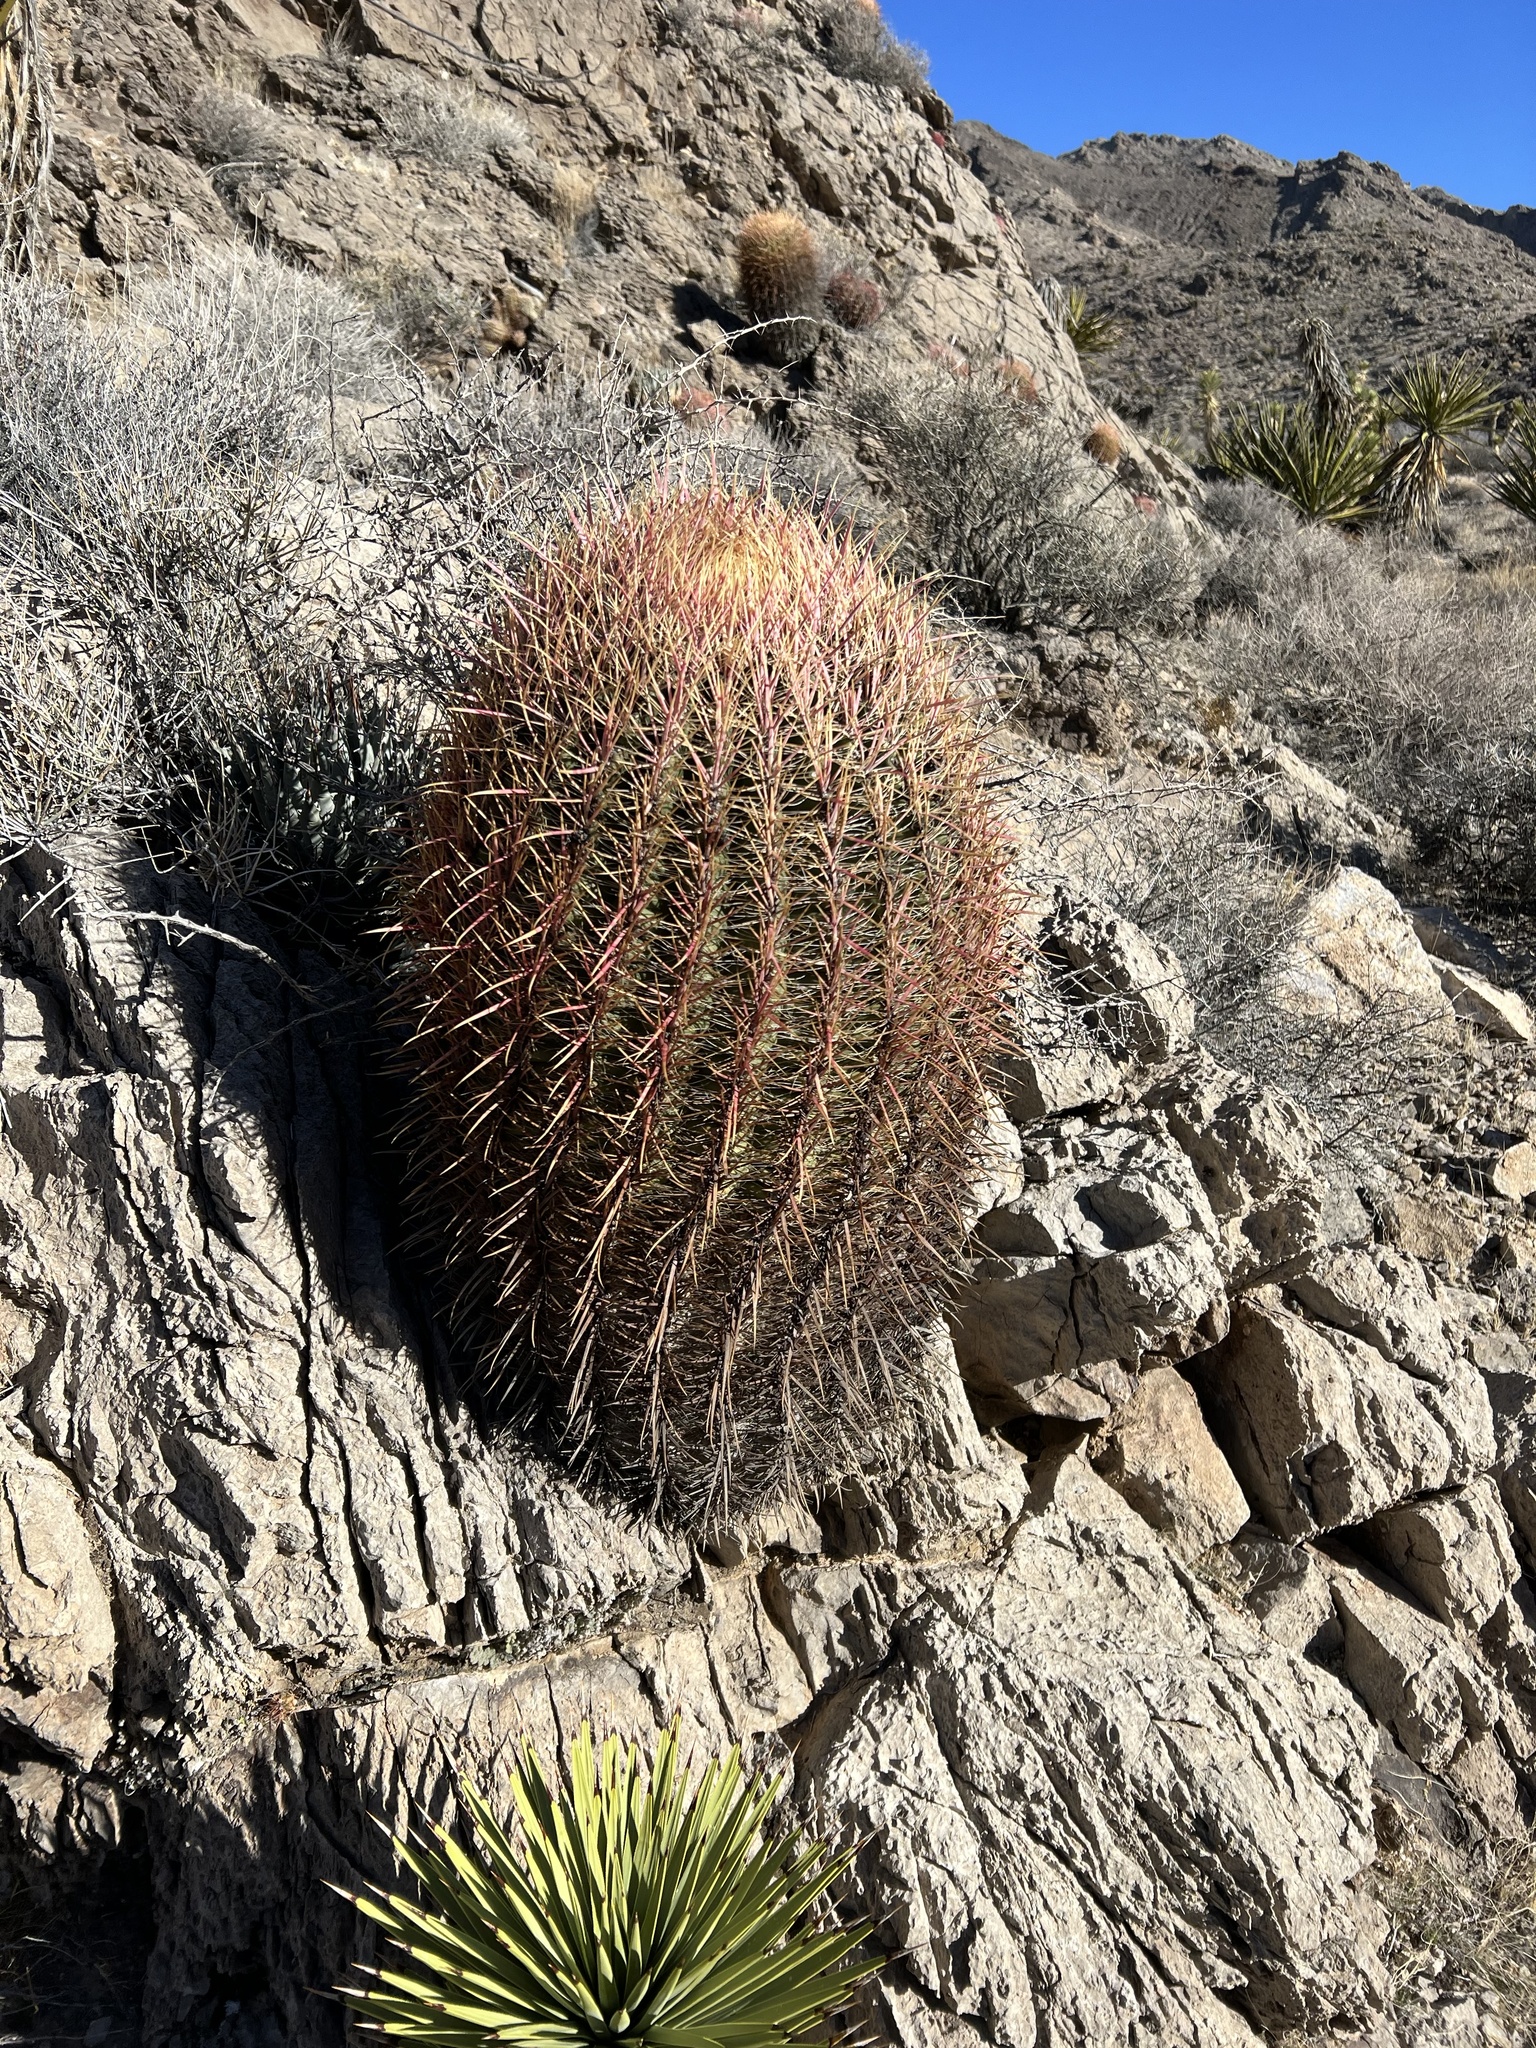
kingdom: Plantae
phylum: Tracheophyta
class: Magnoliopsida
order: Caryophyllales
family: Cactaceae
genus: Ferocactus
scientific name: Ferocactus cylindraceus
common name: California barrel cactus
